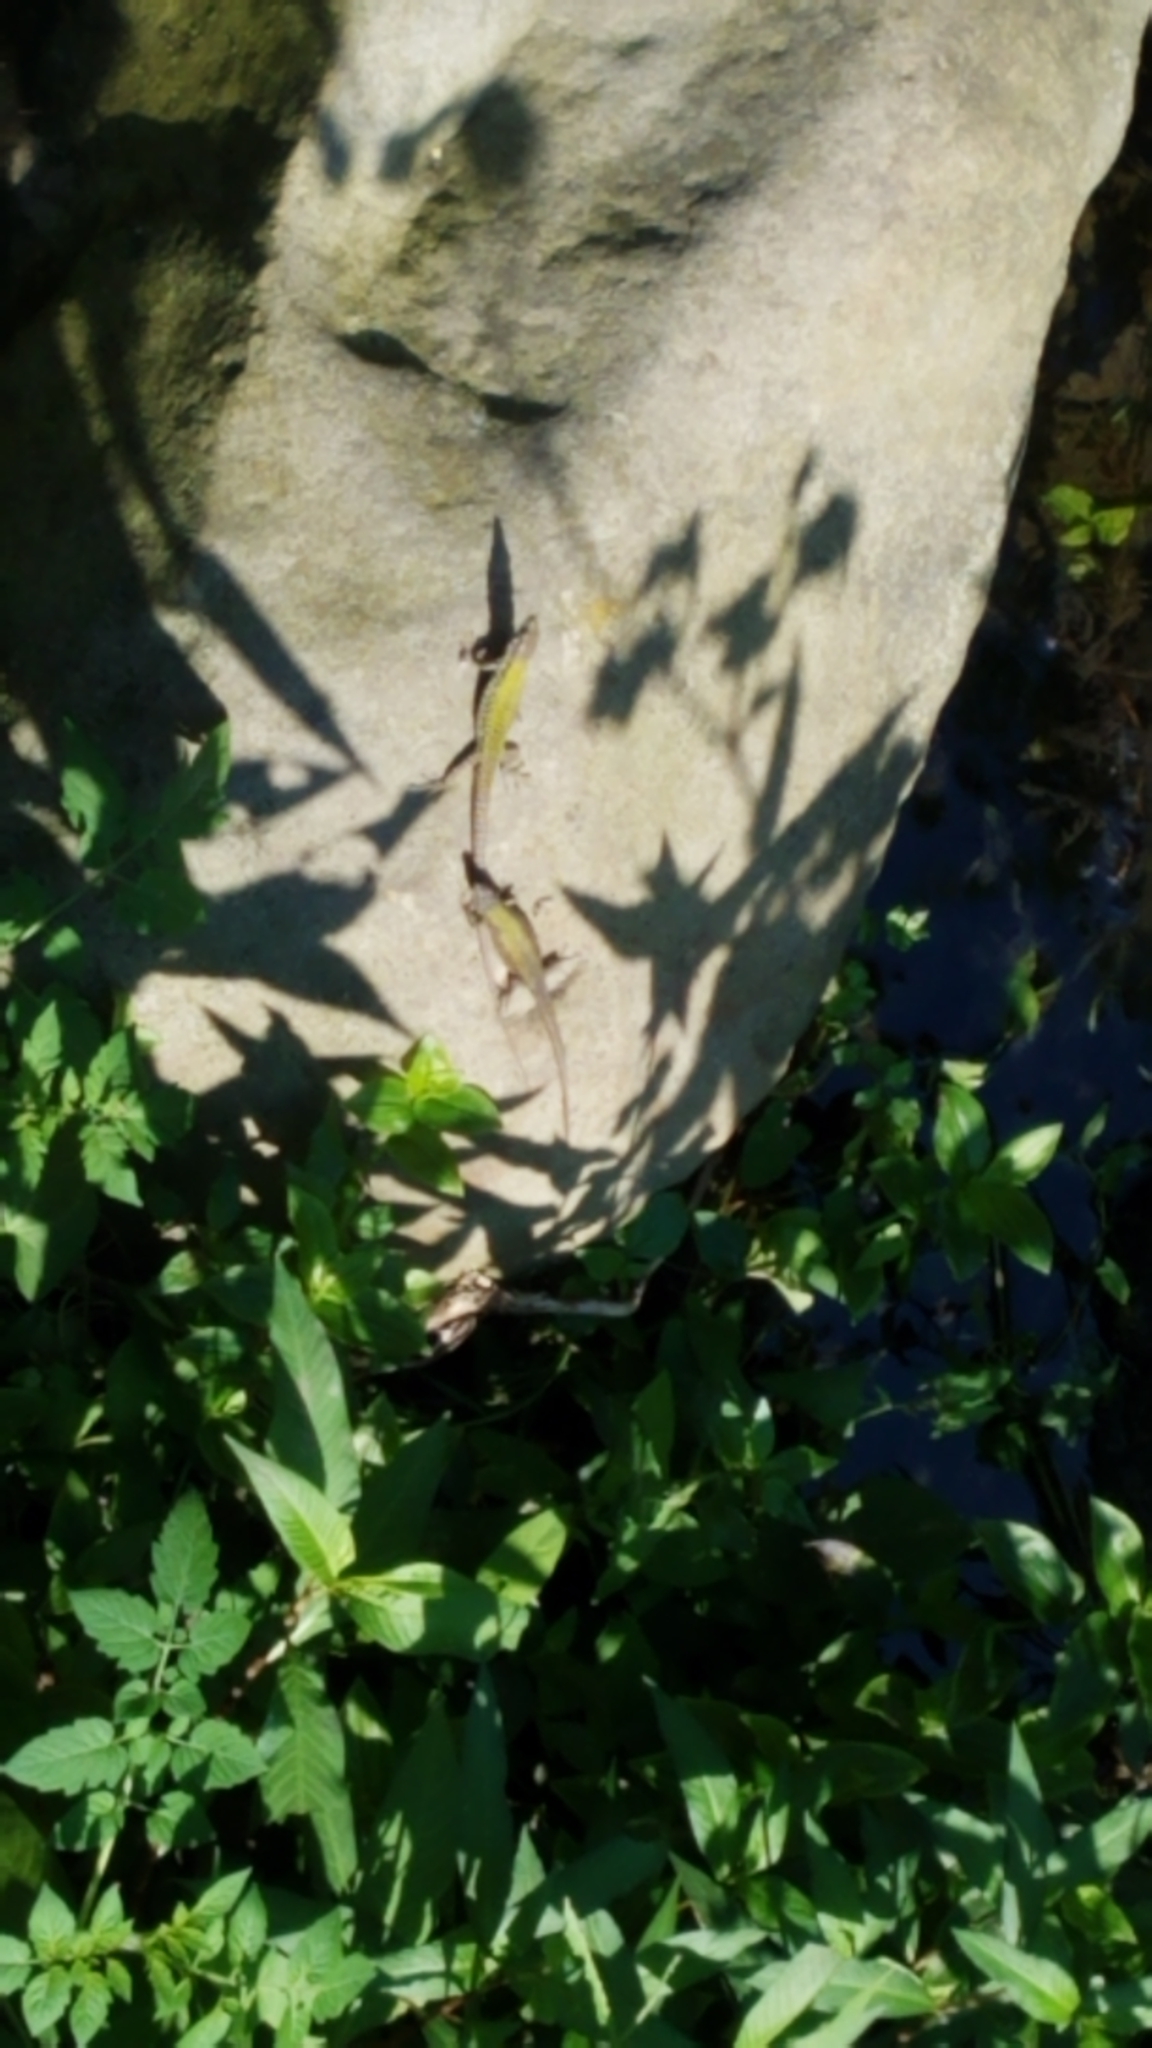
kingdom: Animalia
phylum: Chordata
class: Squamata
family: Lacertidae
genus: Podarcis
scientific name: Podarcis muralis
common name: Common wall lizard
